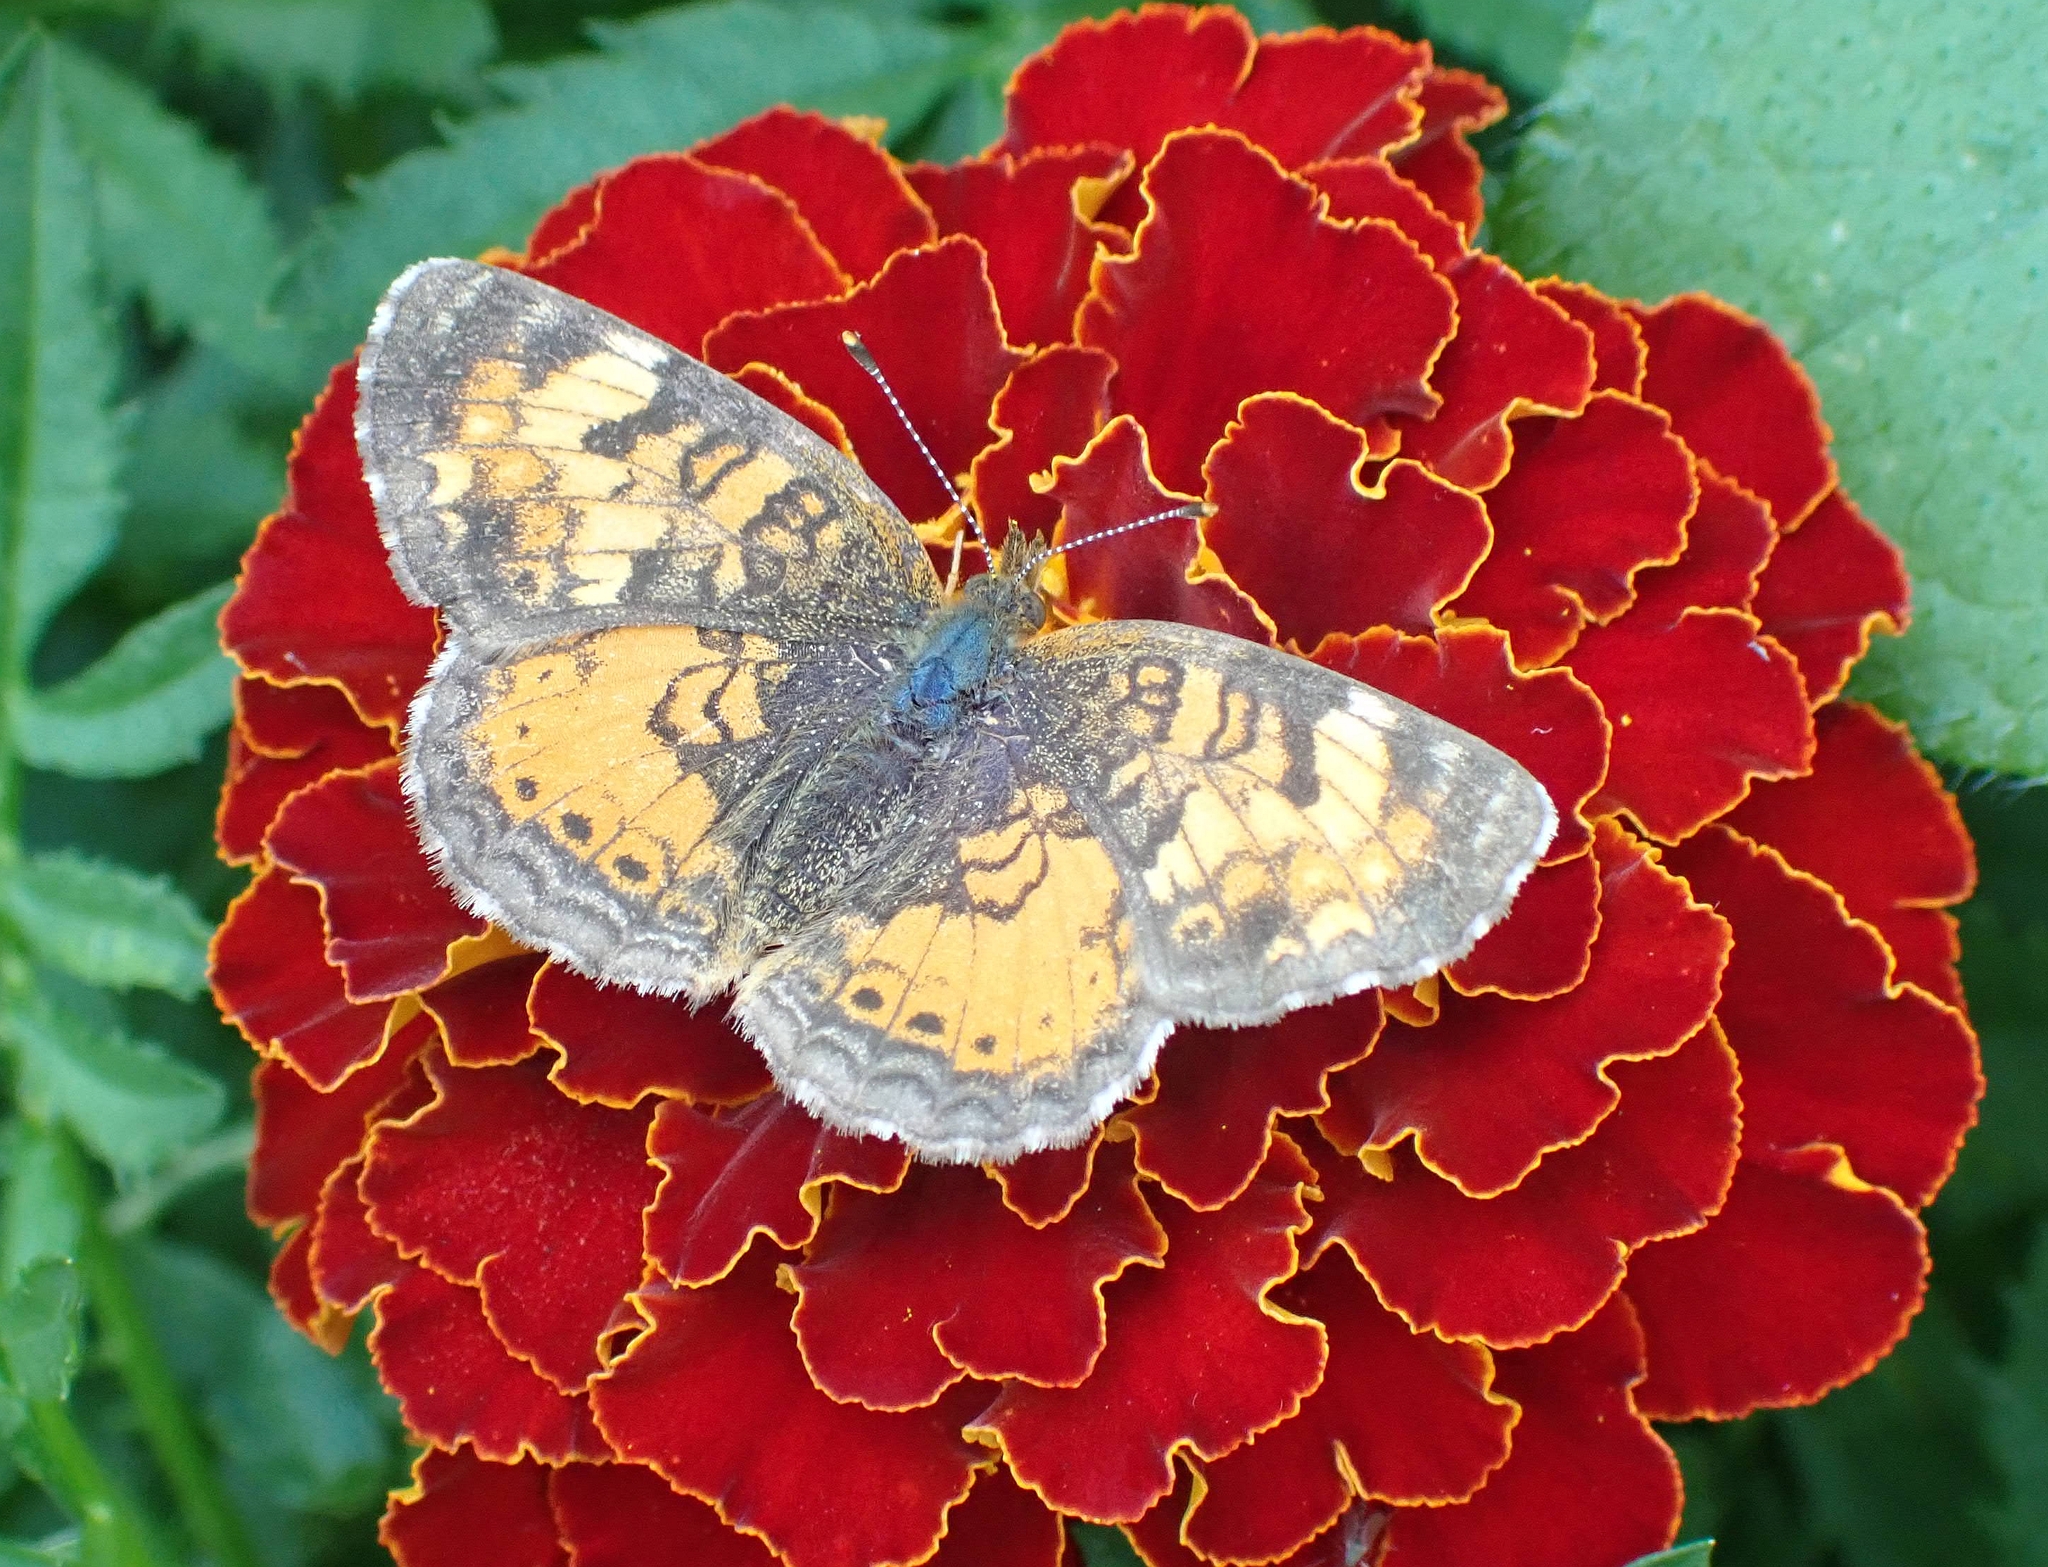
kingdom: Animalia
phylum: Arthropoda
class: Insecta
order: Lepidoptera
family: Nymphalidae
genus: Phyciodes
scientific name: Phyciodes tharos
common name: Pearl crescent
